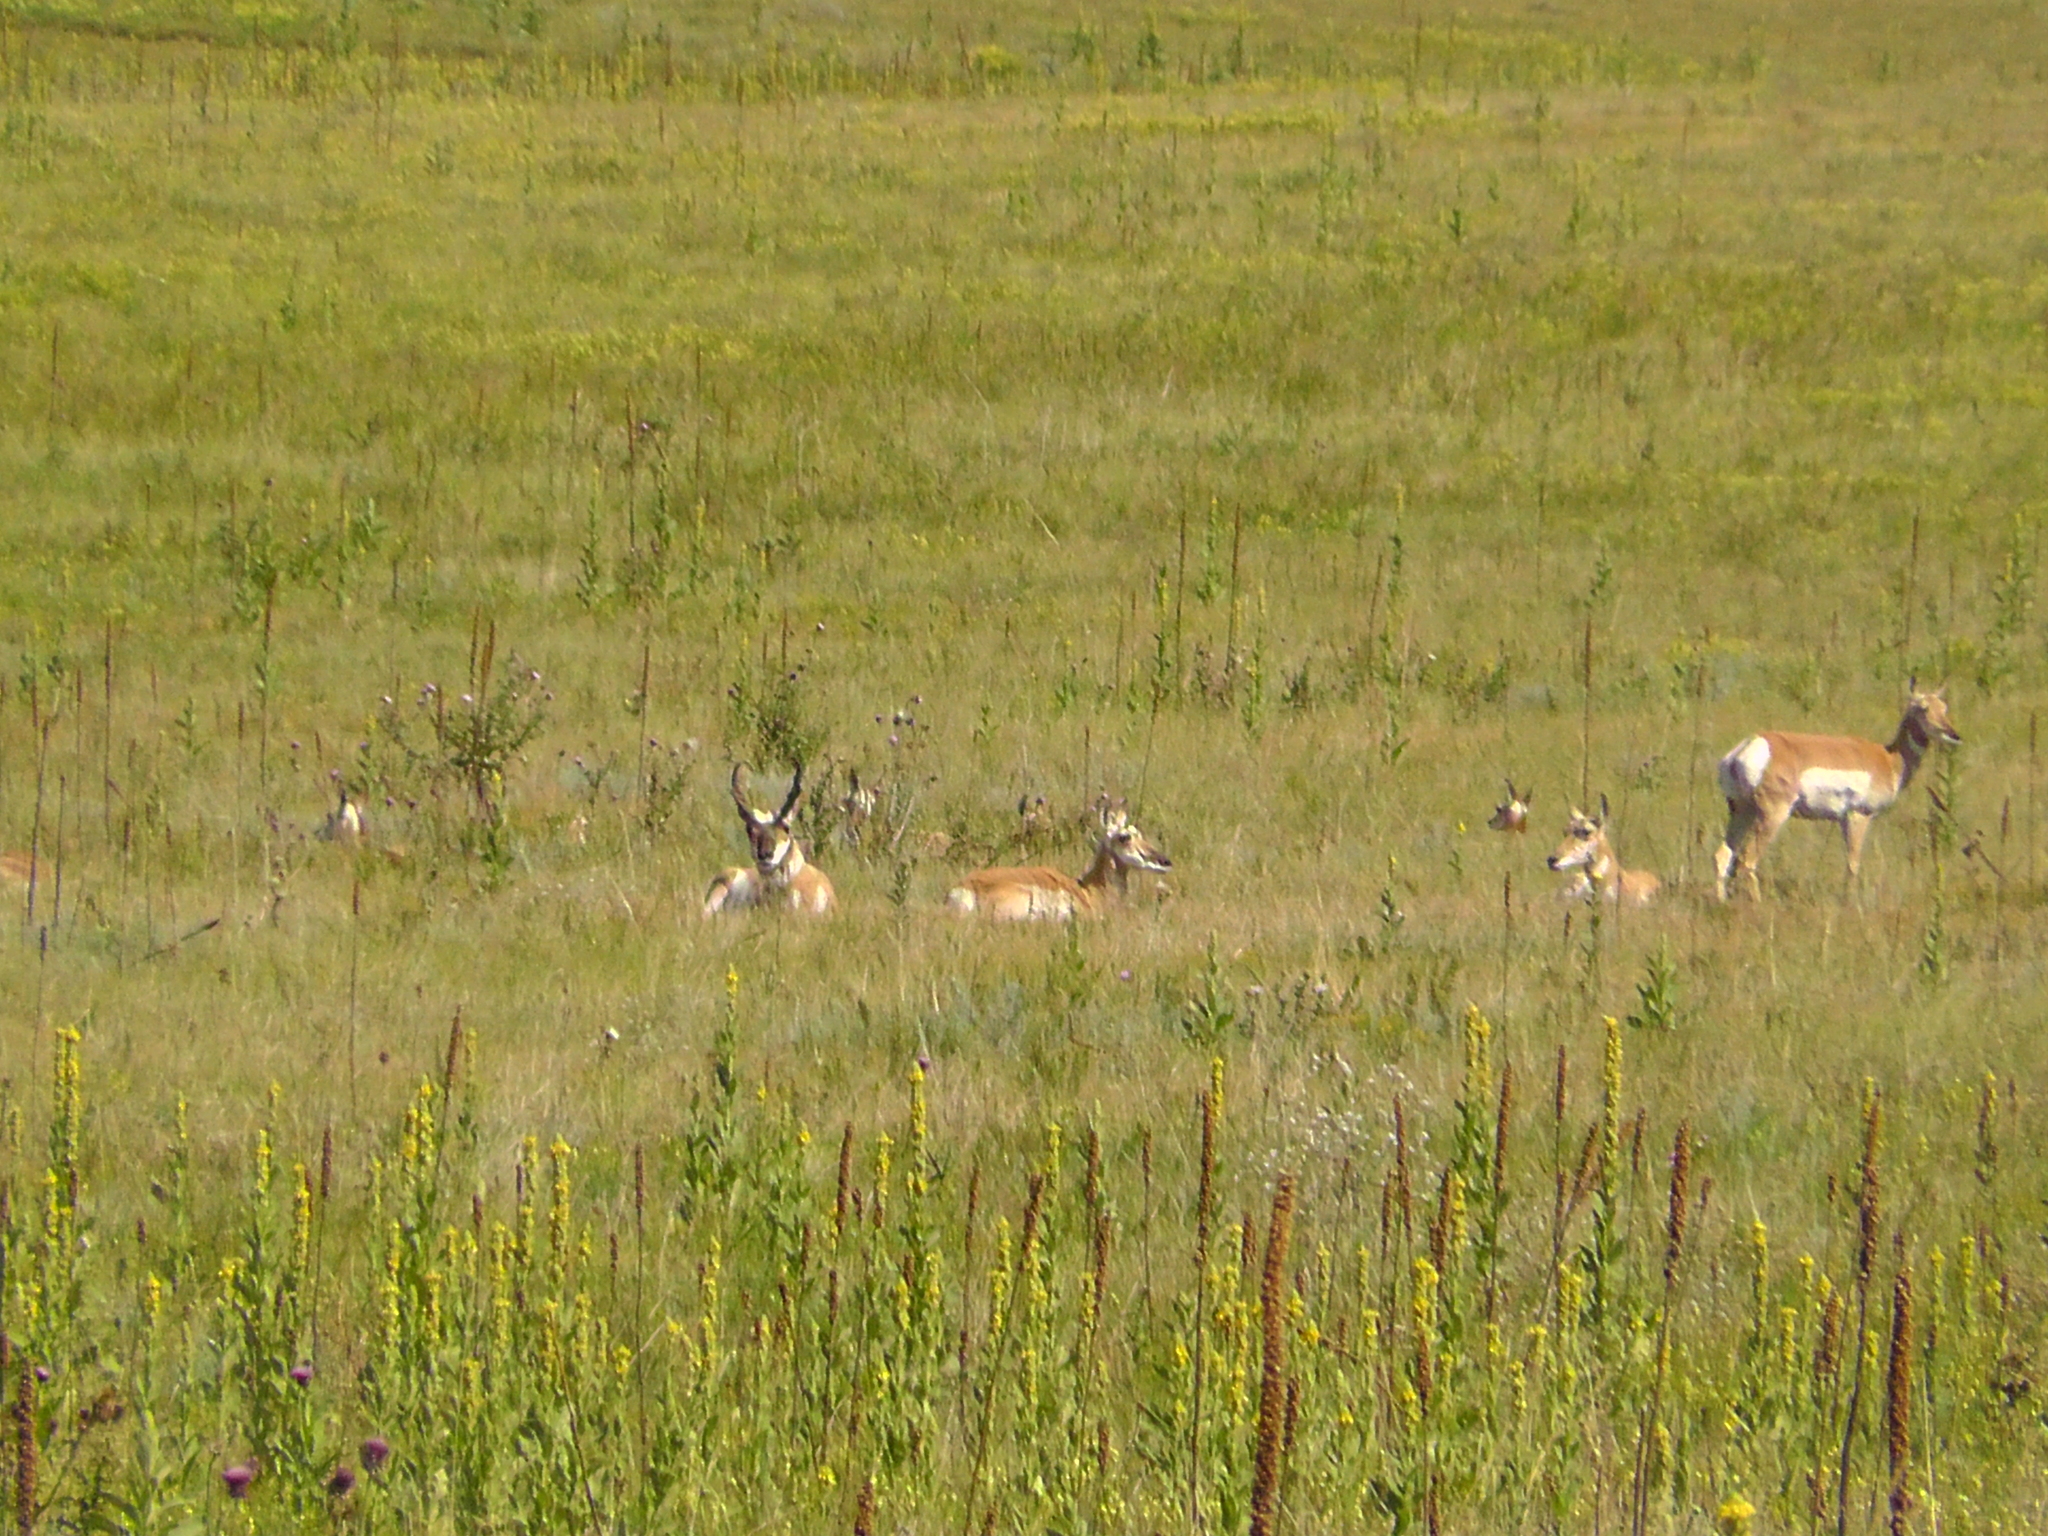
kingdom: Animalia
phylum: Chordata
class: Mammalia
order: Artiodactyla
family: Antilocapridae
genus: Antilocapra
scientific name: Antilocapra americana
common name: Pronghorn
